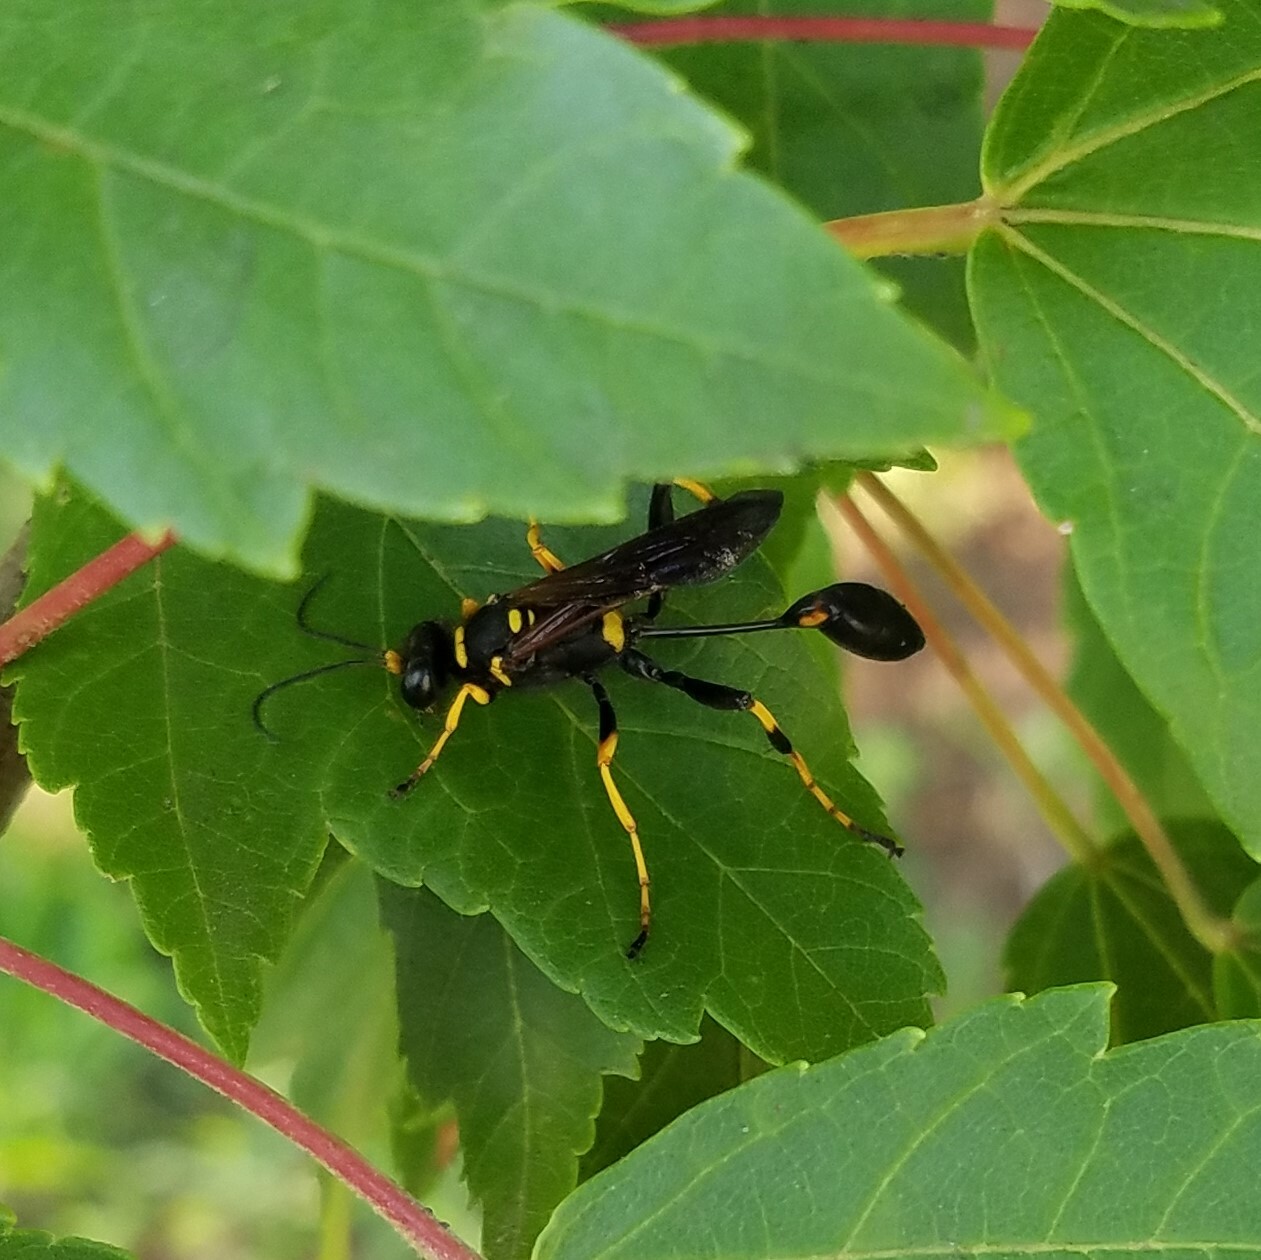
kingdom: Animalia
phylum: Arthropoda
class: Insecta
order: Hymenoptera
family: Sphecidae
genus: Sceliphron
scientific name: Sceliphron caementarium
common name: Mud dauber
